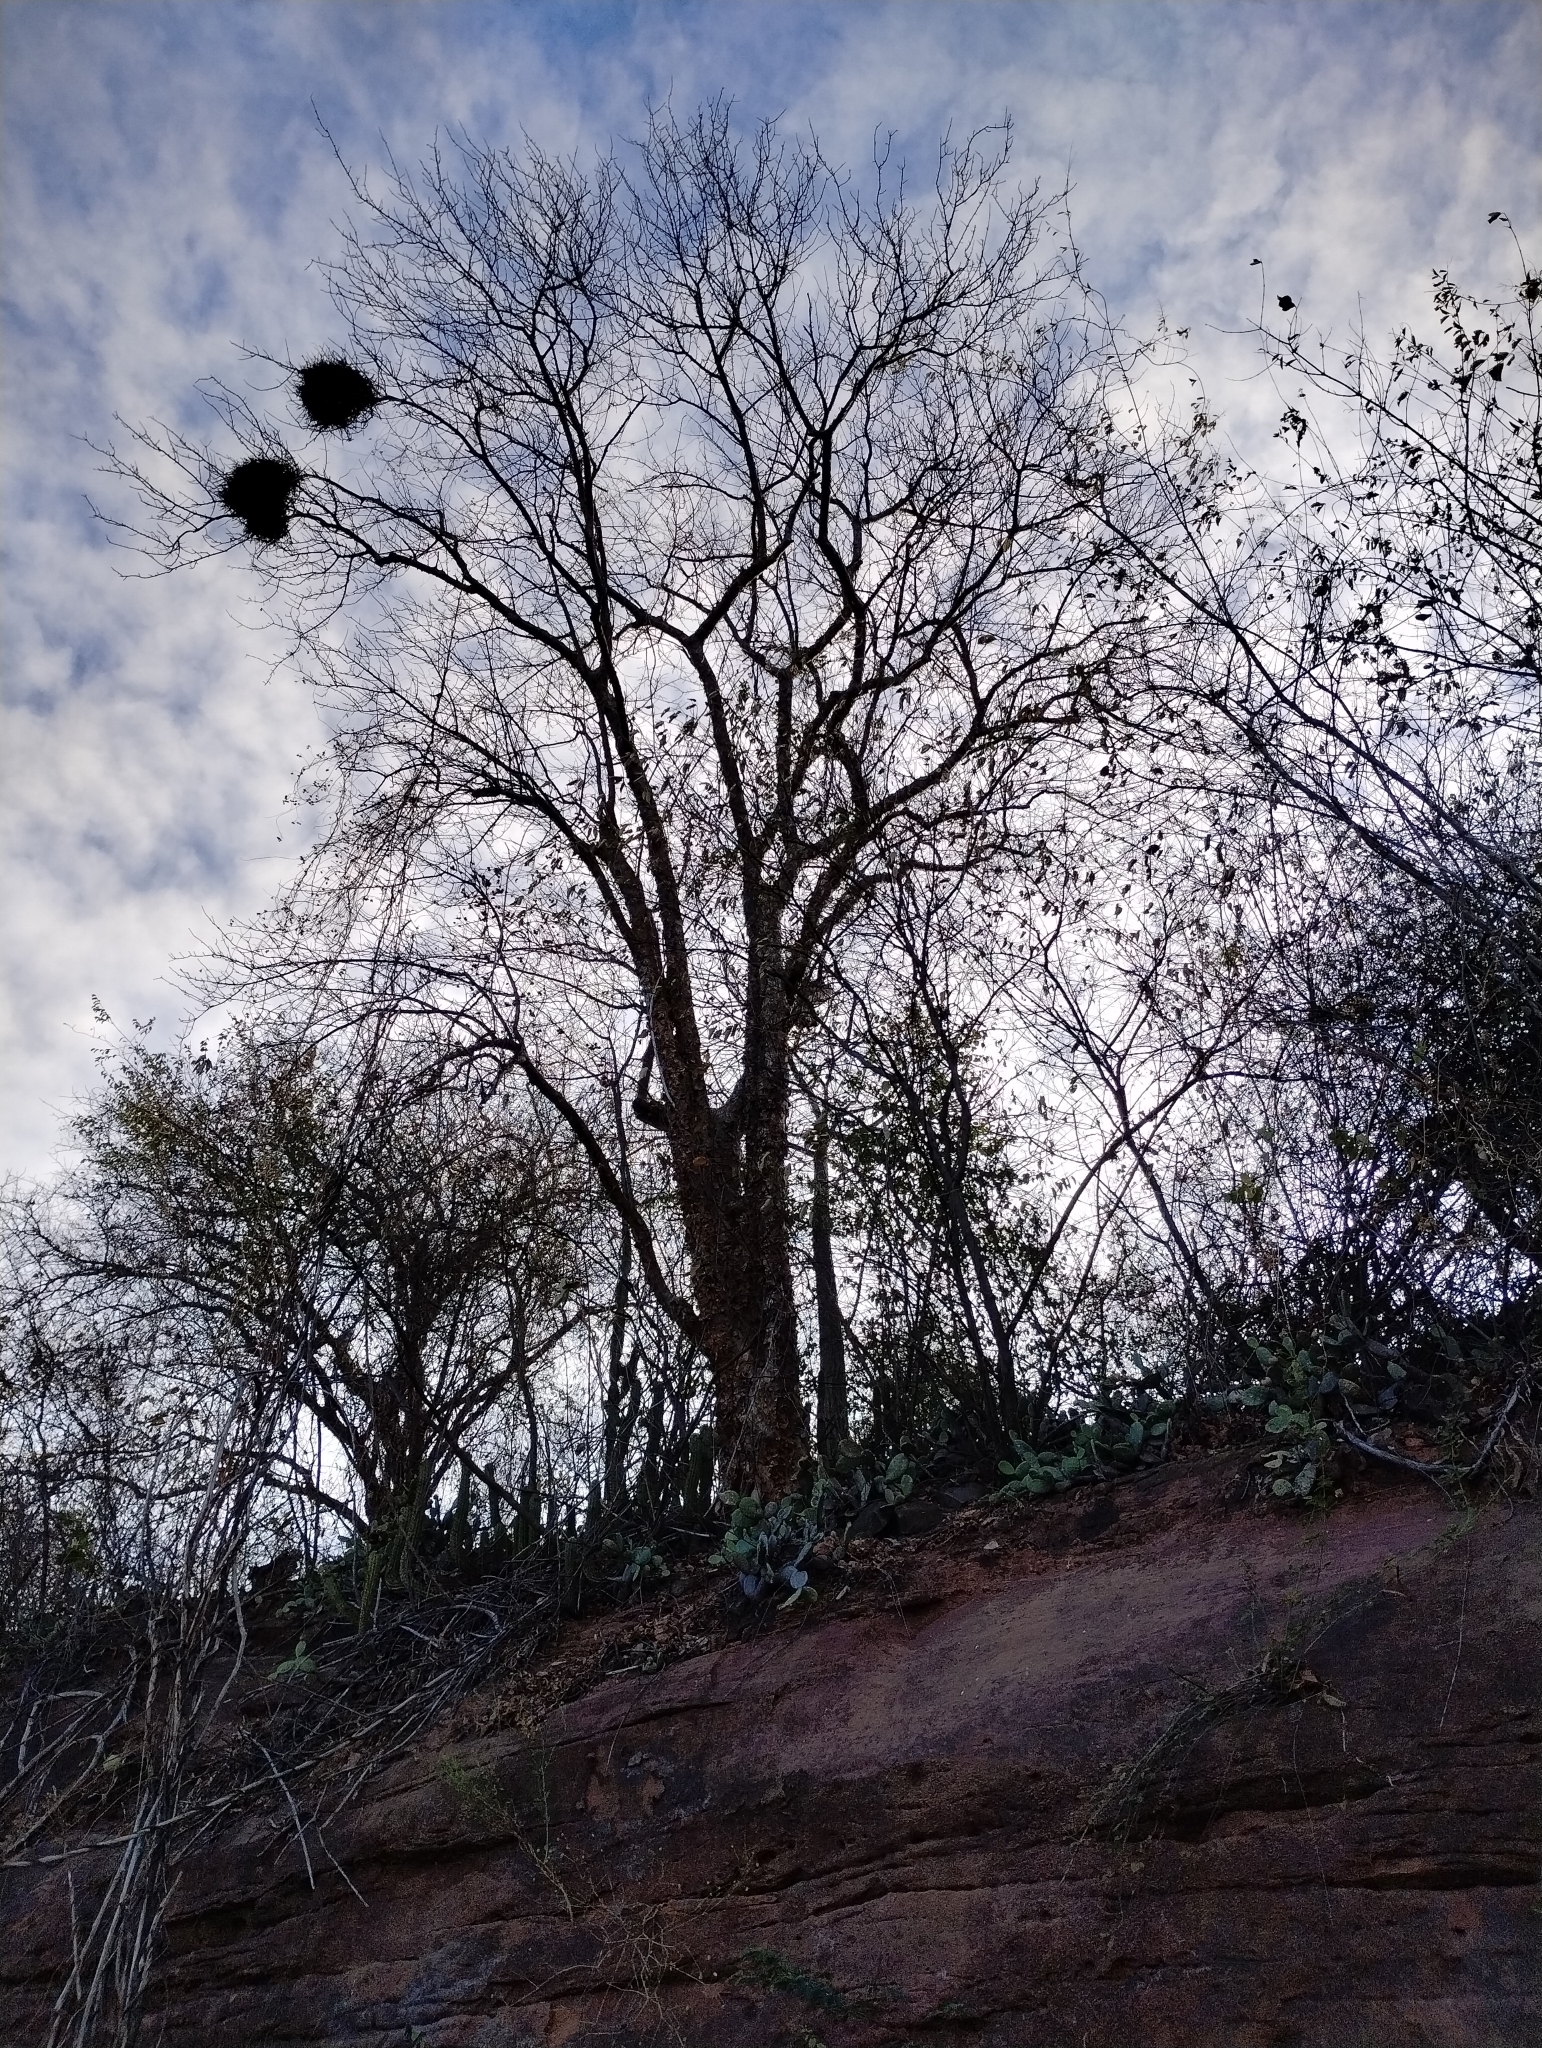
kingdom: Plantae
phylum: Tracheophyta
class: Magnoliopsida
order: Sapindales
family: Burseraceae
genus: Bursera
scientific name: Bursera leptophloeos
